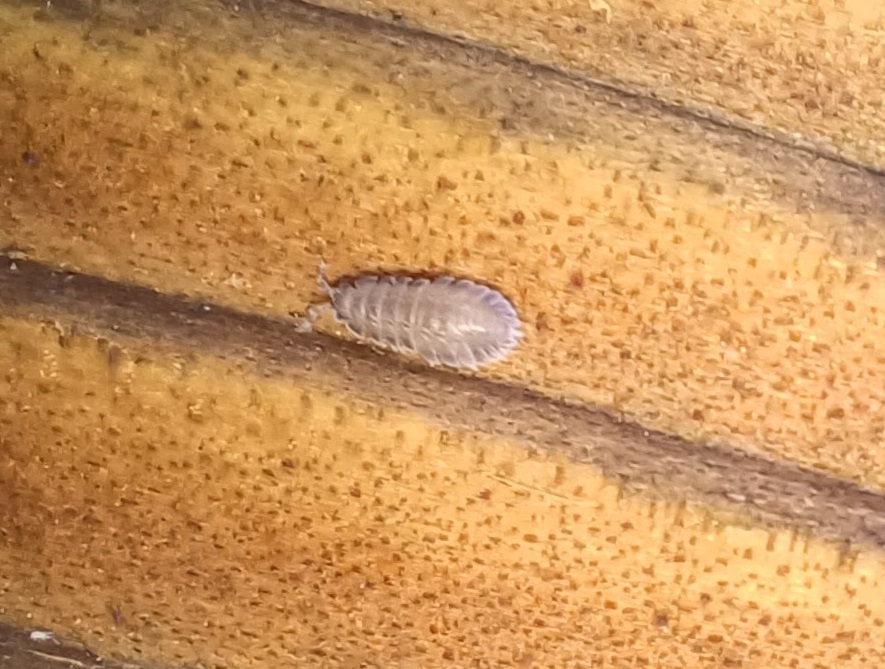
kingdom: Animalia
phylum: Arthropoda
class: Malacostraca
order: Isopoda
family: Detonidae
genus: Armadilloniscus
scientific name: Armadilloniscus ellipticus
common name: Pillbug
